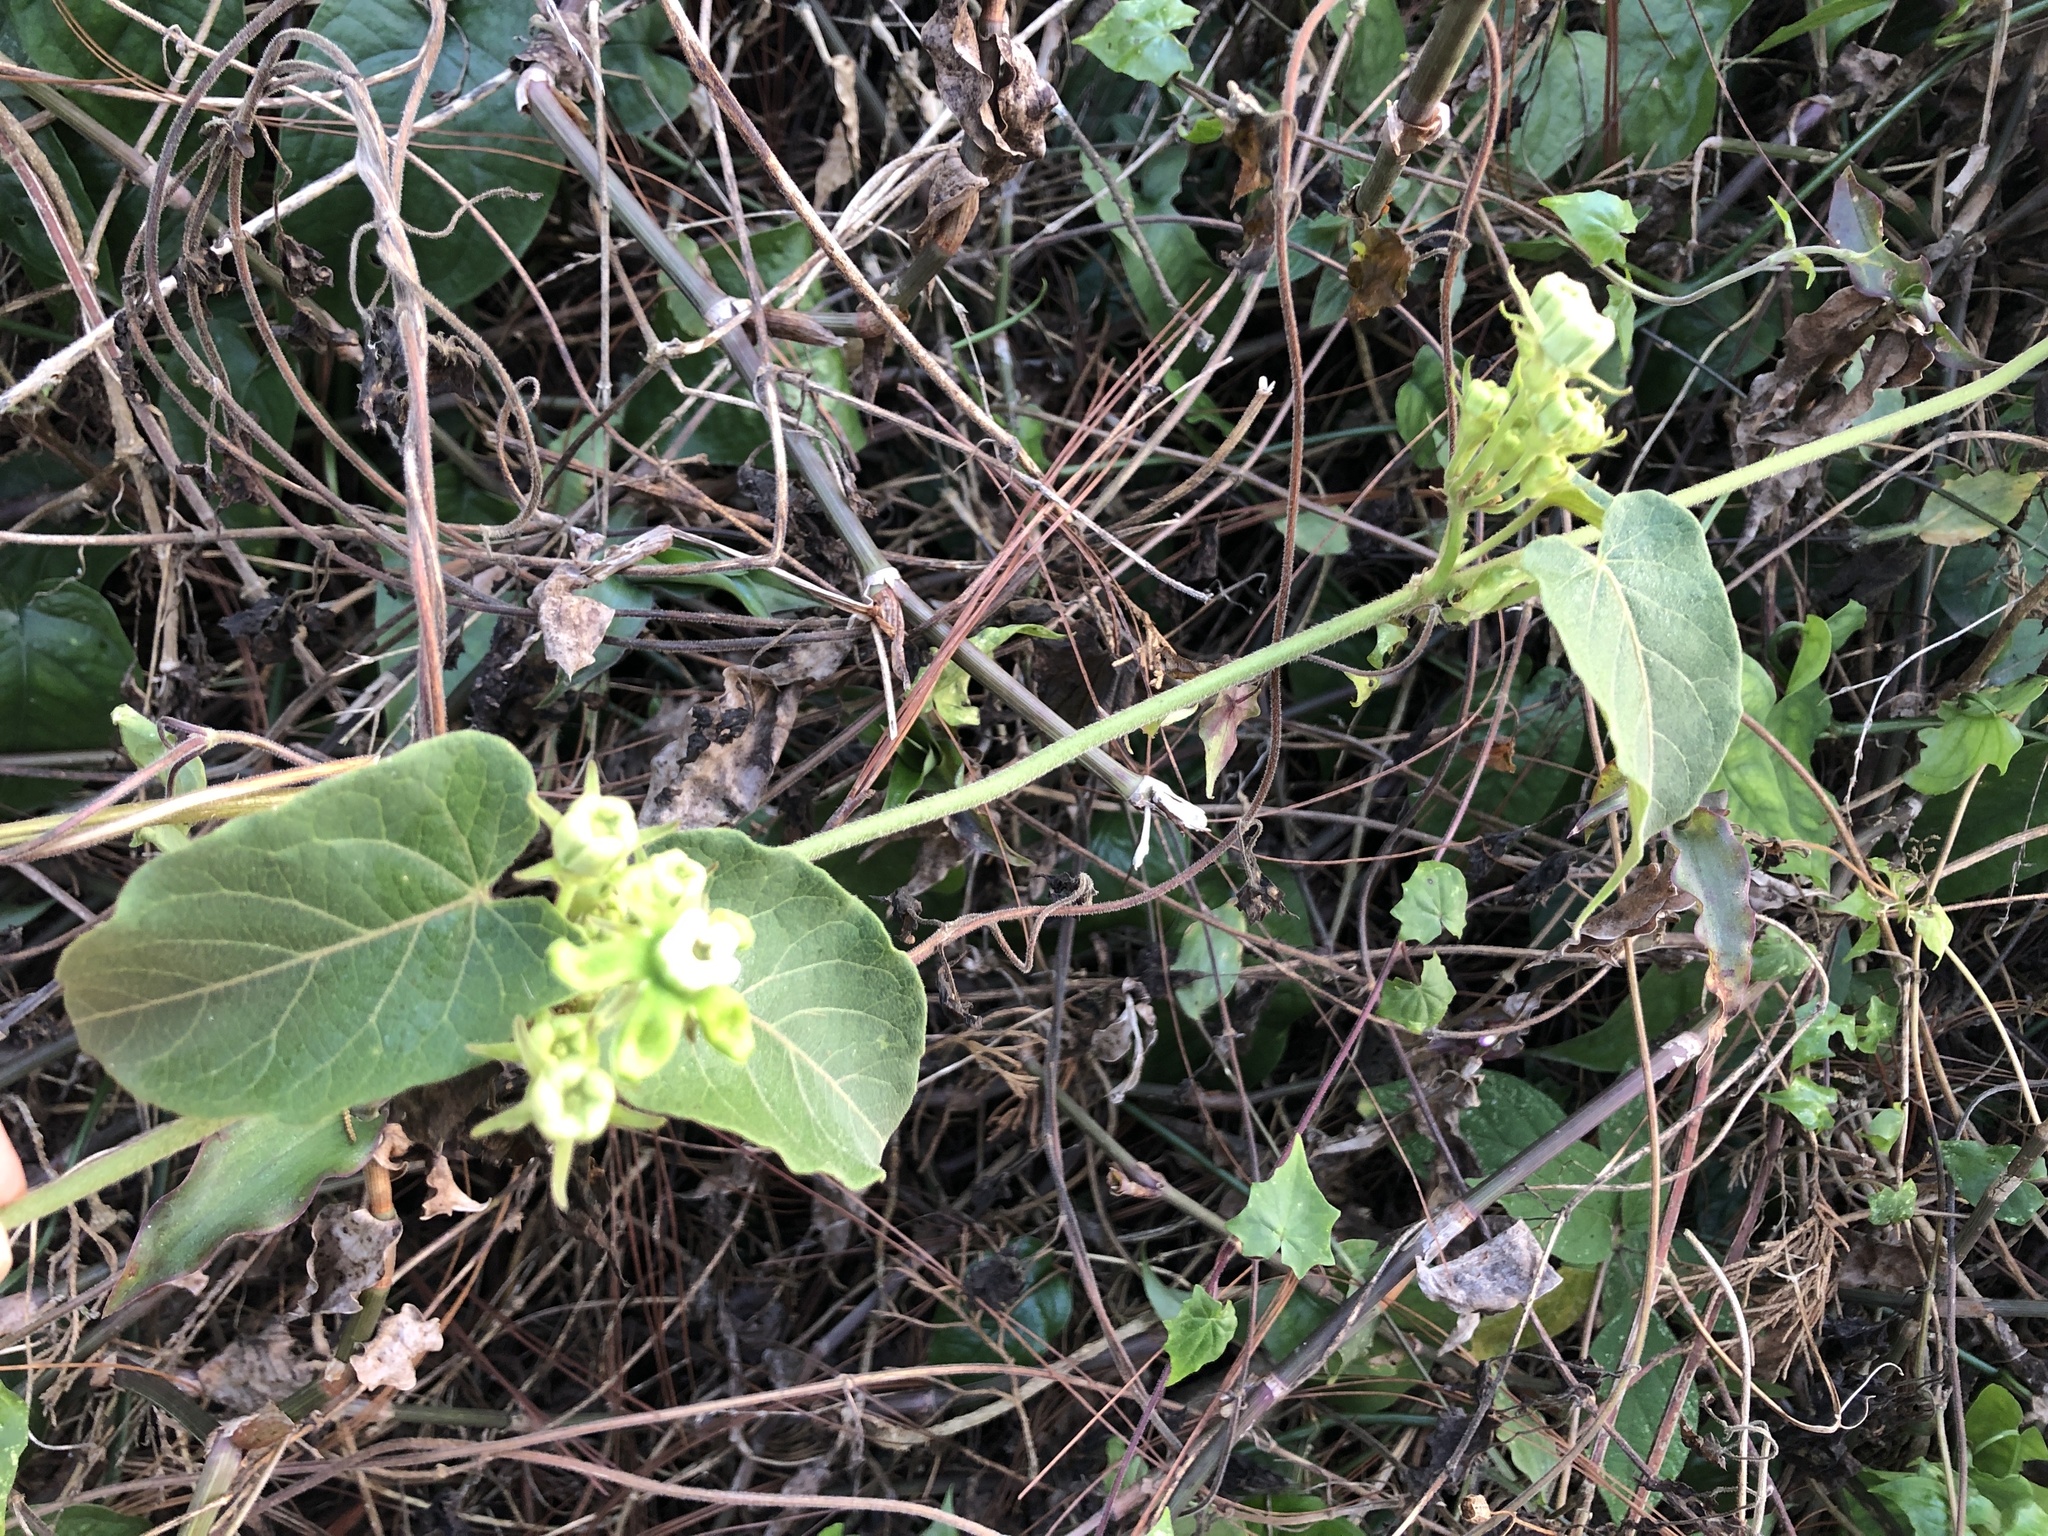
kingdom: Plantae
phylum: Tracheophyta
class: Magnoliopsida
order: Gentianales
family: Apocynaceae
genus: Gonolobus
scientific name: Gonolobus lasiostemma
